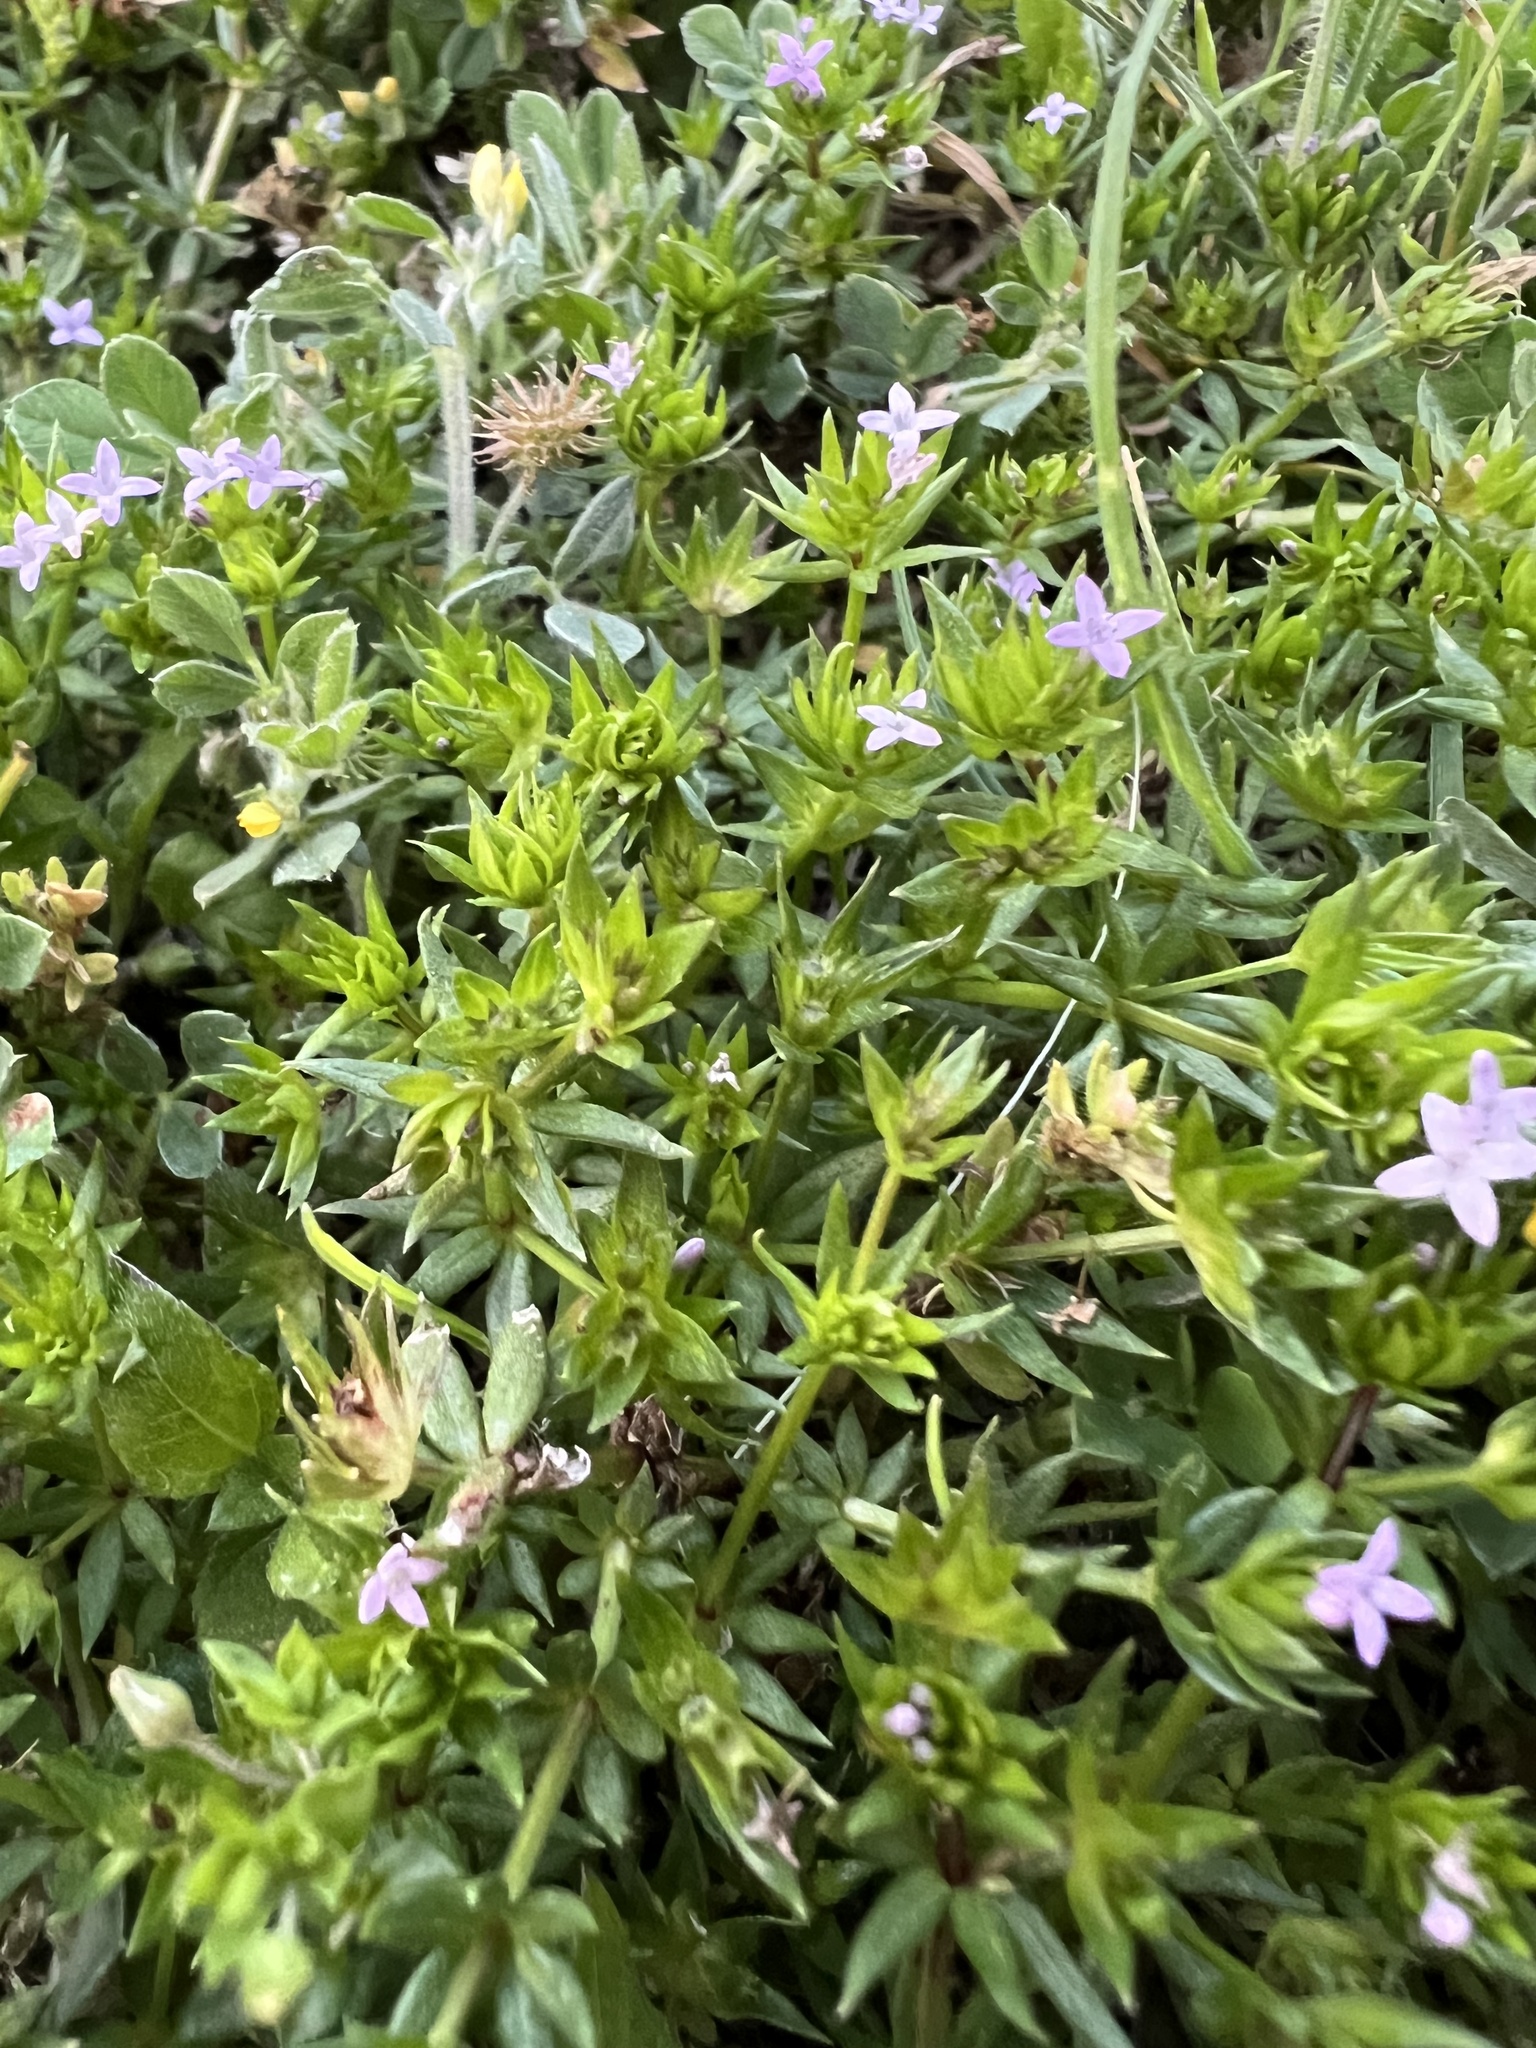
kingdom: Plantae
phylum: Tracheophyta
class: Magnoliopsida
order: Gentianales
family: Rubiaceae
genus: Sherardia
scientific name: Sherardia arvensis
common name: Field madder
